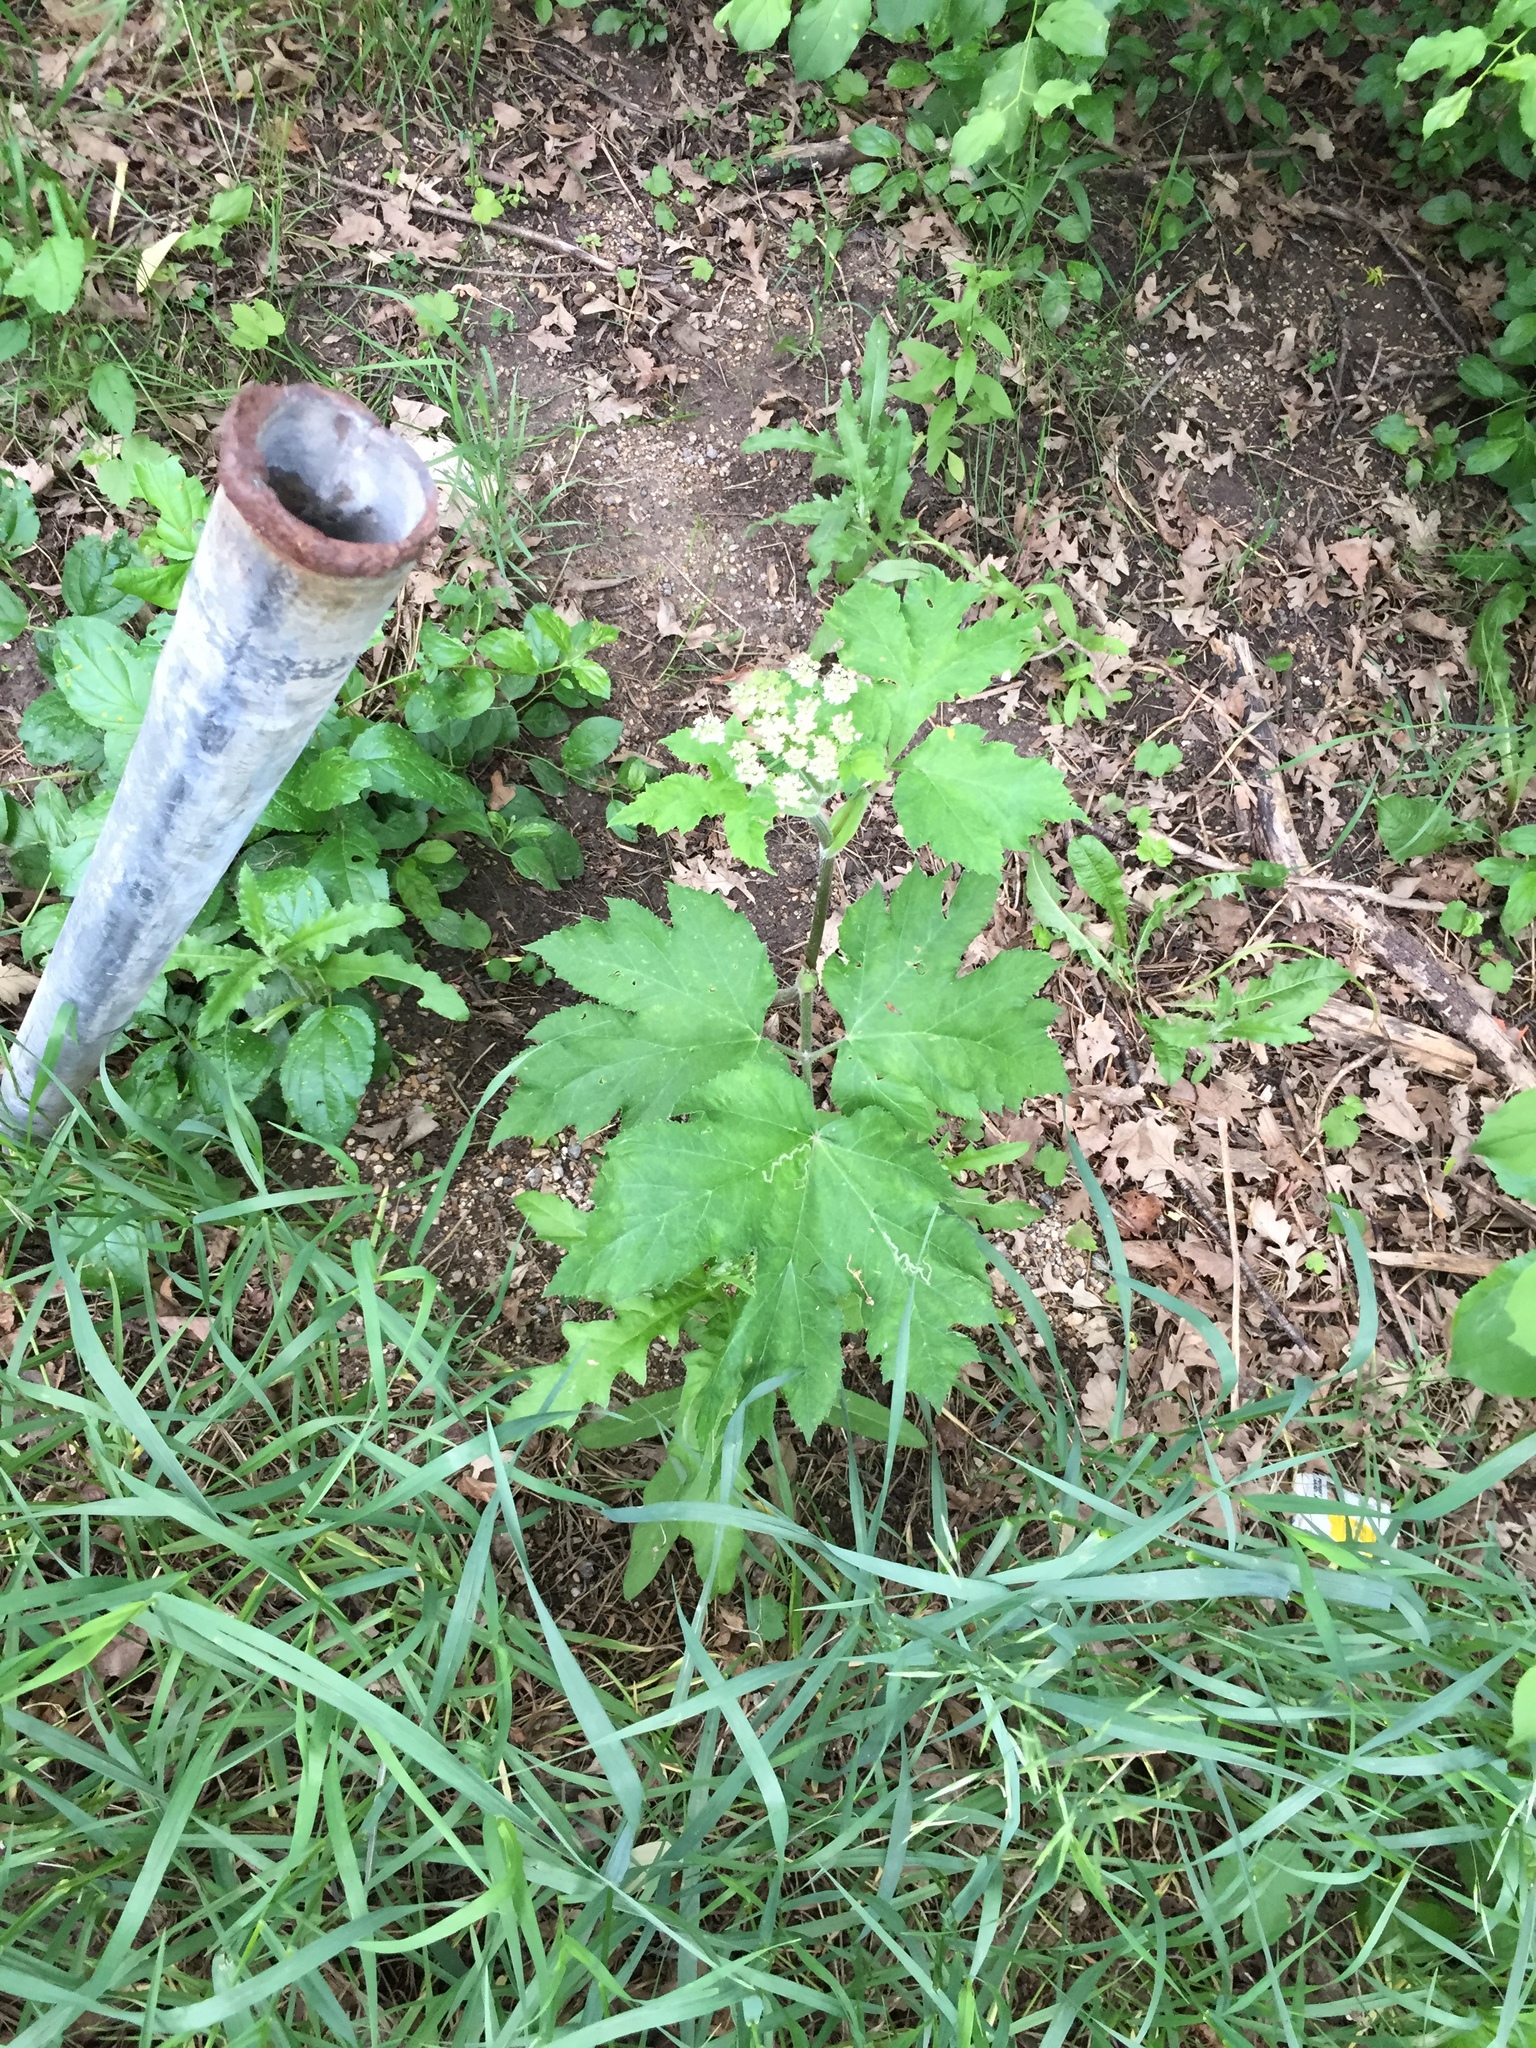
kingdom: Plantae
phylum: Tracheophyta
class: Magnoliopsida
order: Apiales
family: Apiaceae
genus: Heracleum
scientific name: Heracleum maximum
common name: American cow parsnip
